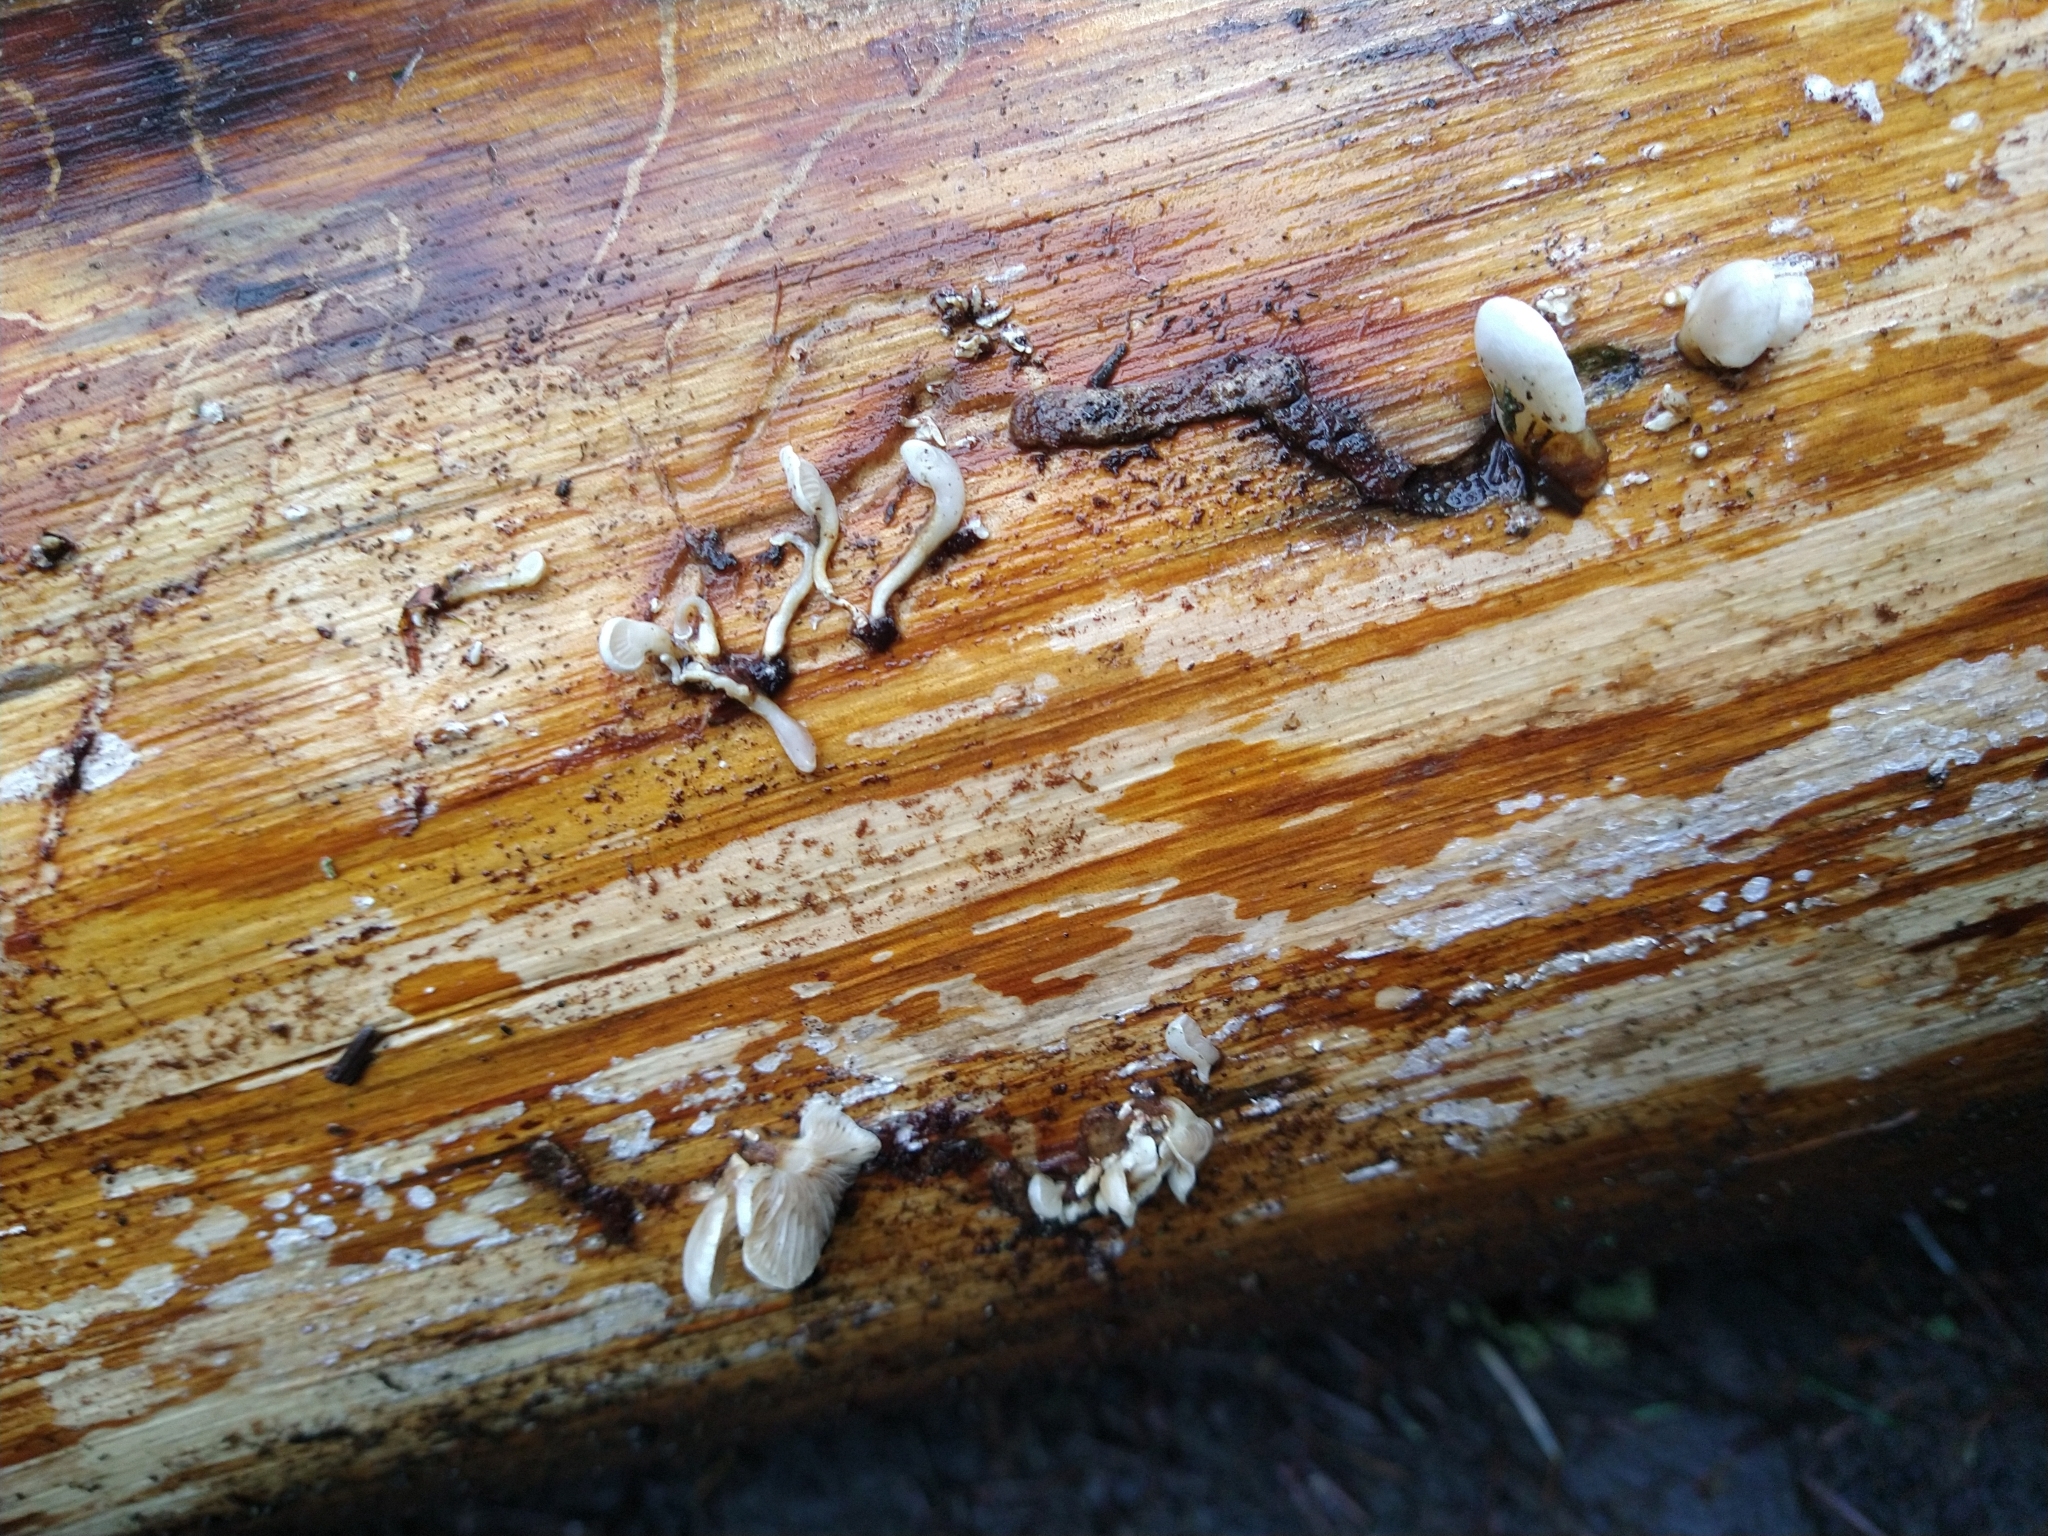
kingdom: Fungi
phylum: Basidiomycota
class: Agaricomycetes
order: Agaricales
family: Mycenaceae
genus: Panellus
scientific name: Panellus mitis
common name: Elastic oysterling
